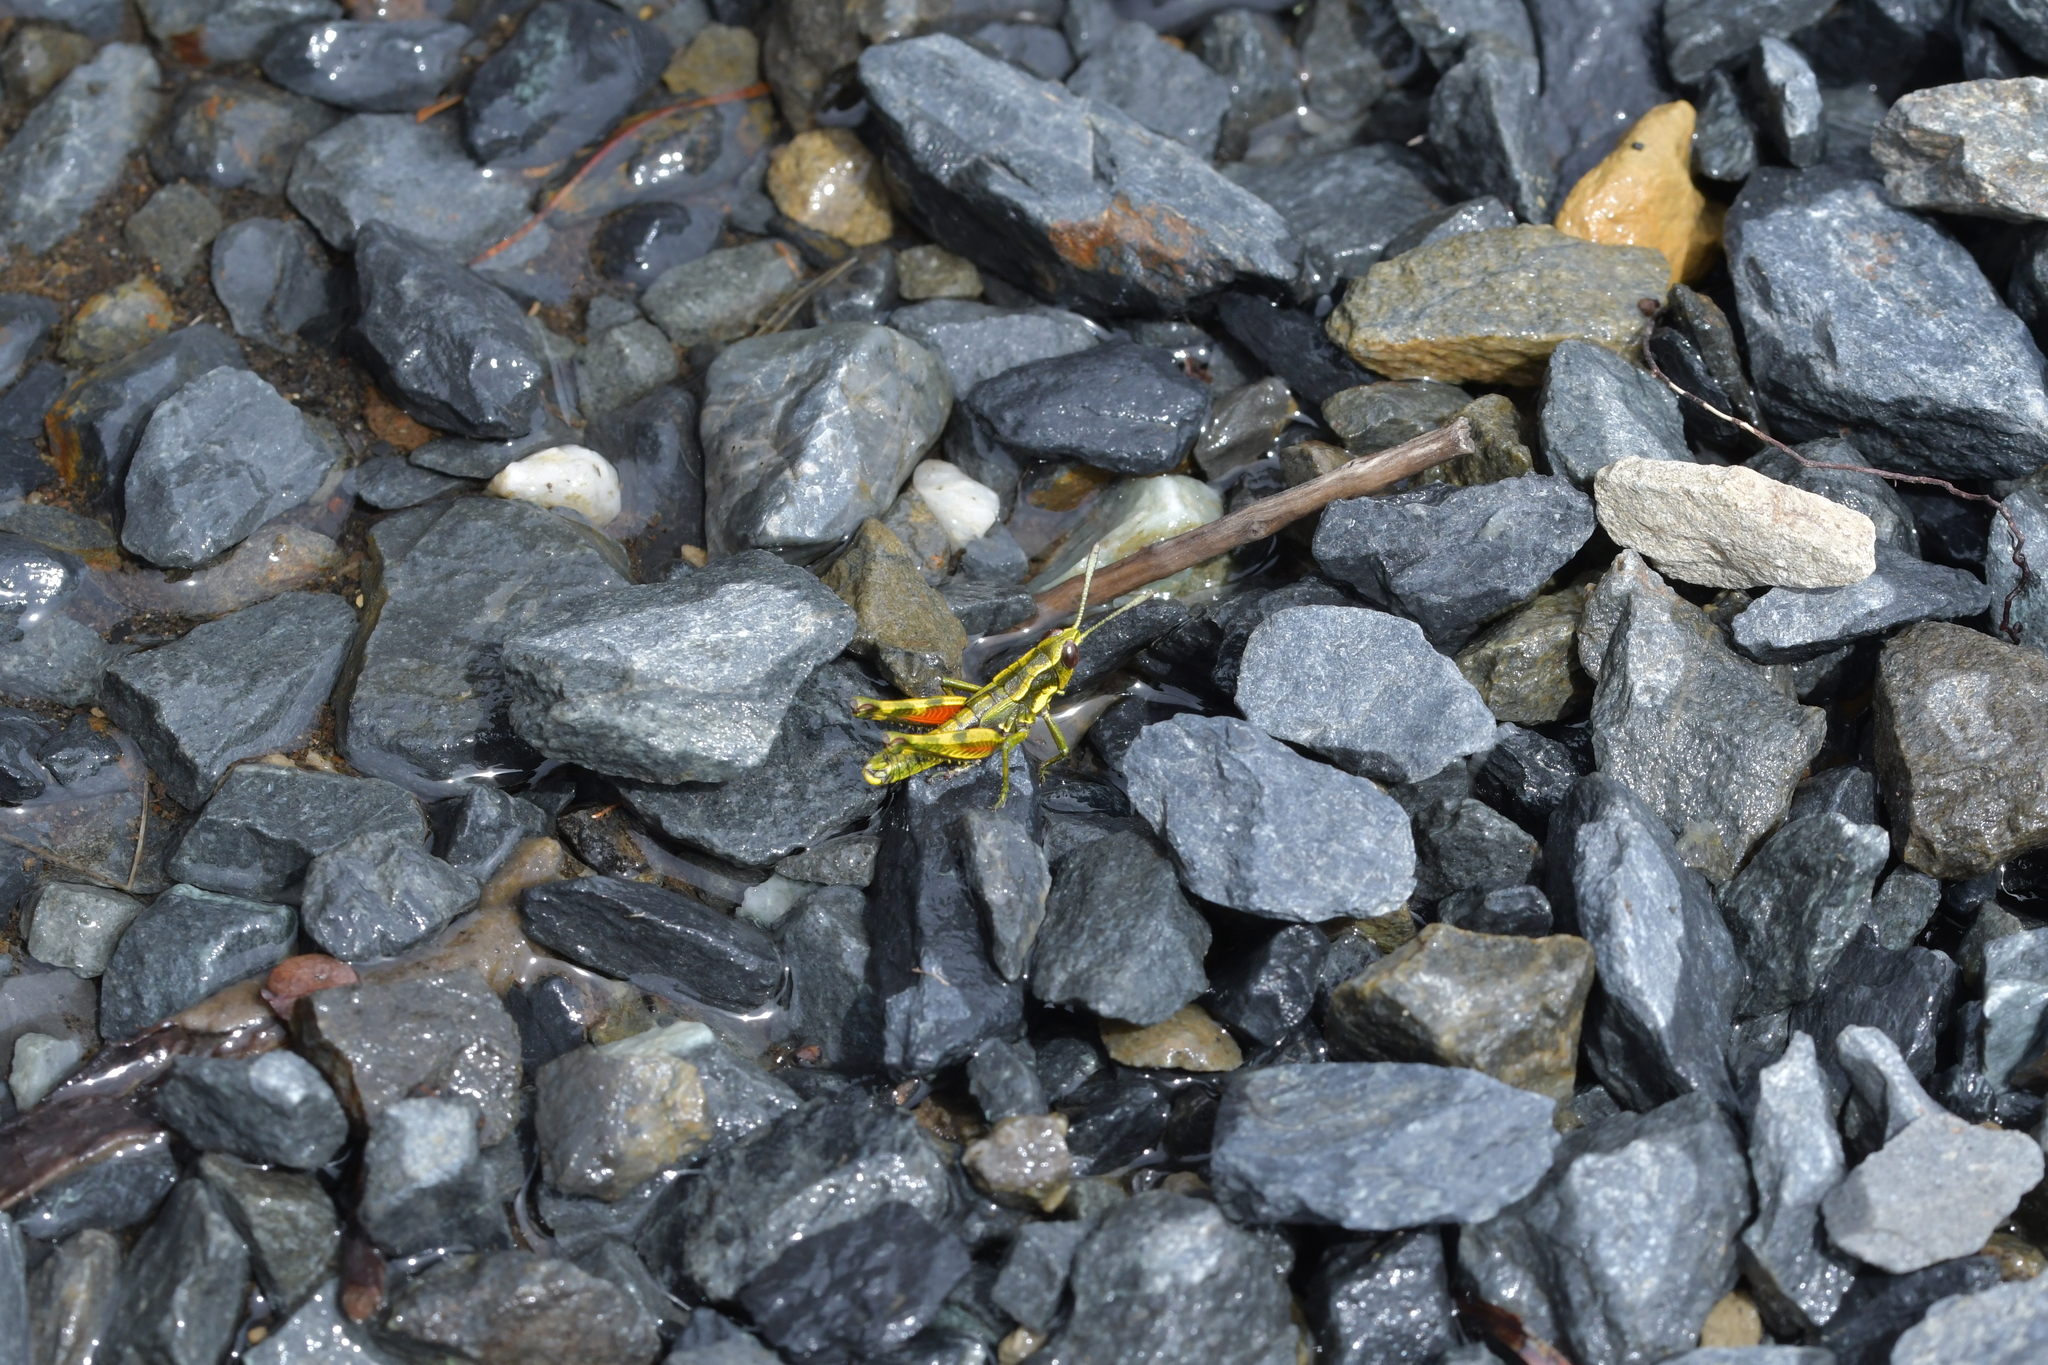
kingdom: Animalia
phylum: Arthropoda
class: Insecta
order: Orthoptera
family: Acrididae
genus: Sigaus
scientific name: Sigaus piliferus
